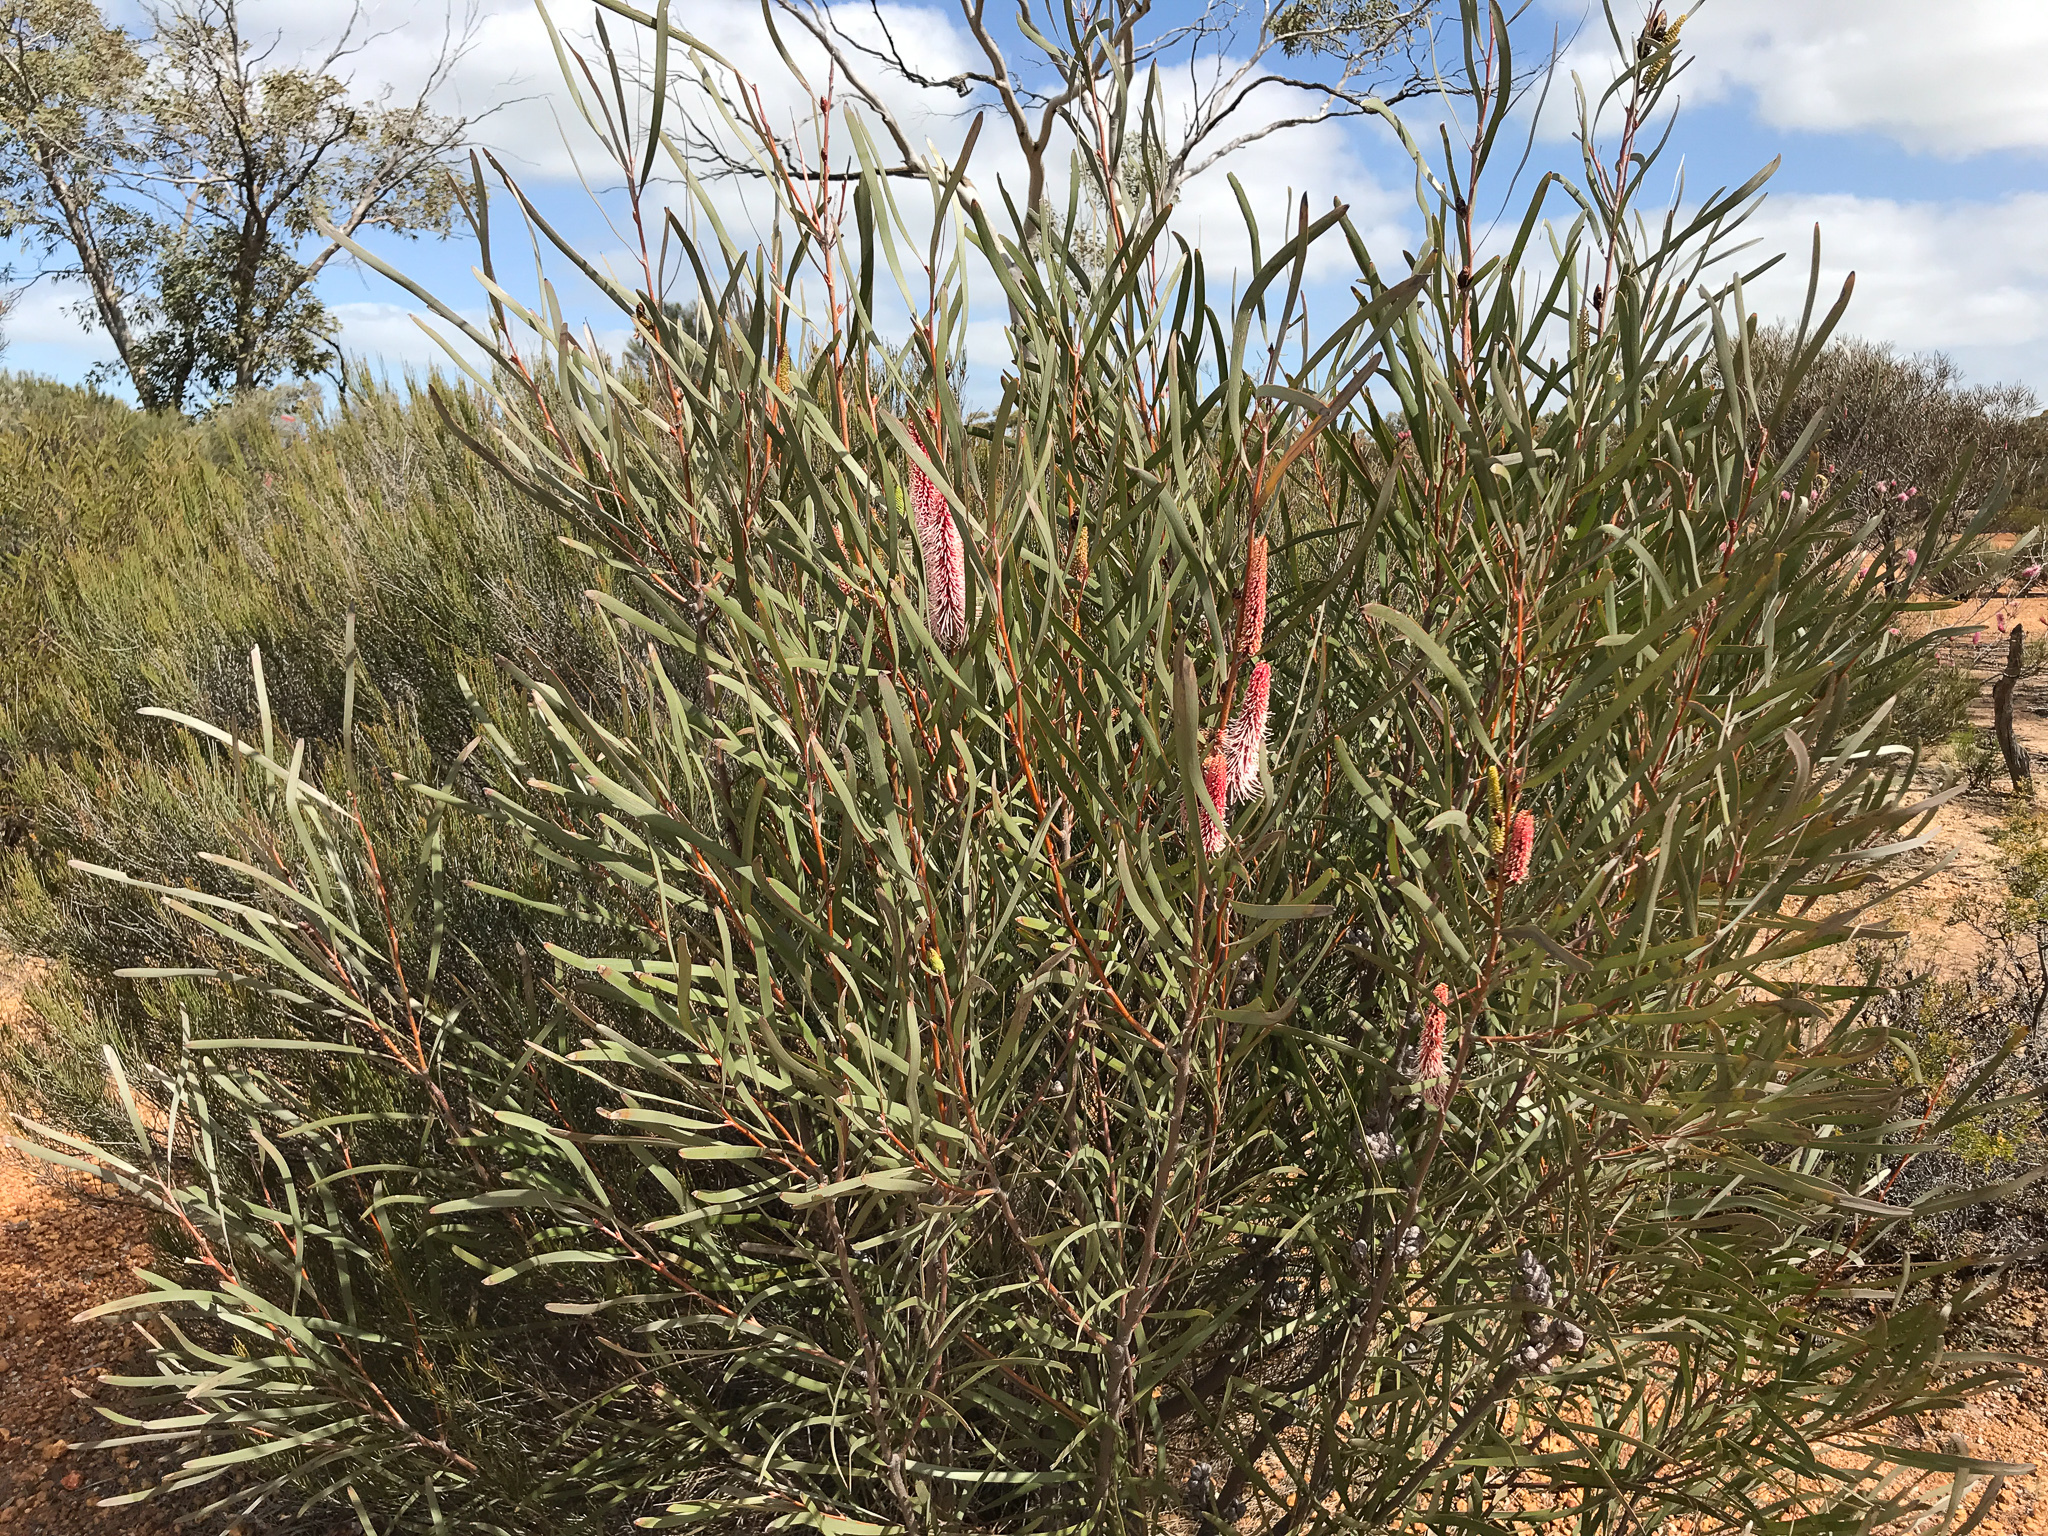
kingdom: Plantae
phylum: Tracheophyta
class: Magnoliopsida
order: Proteales
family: Proteaceae
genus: Grevillea
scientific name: Grevillea petrophiloides
